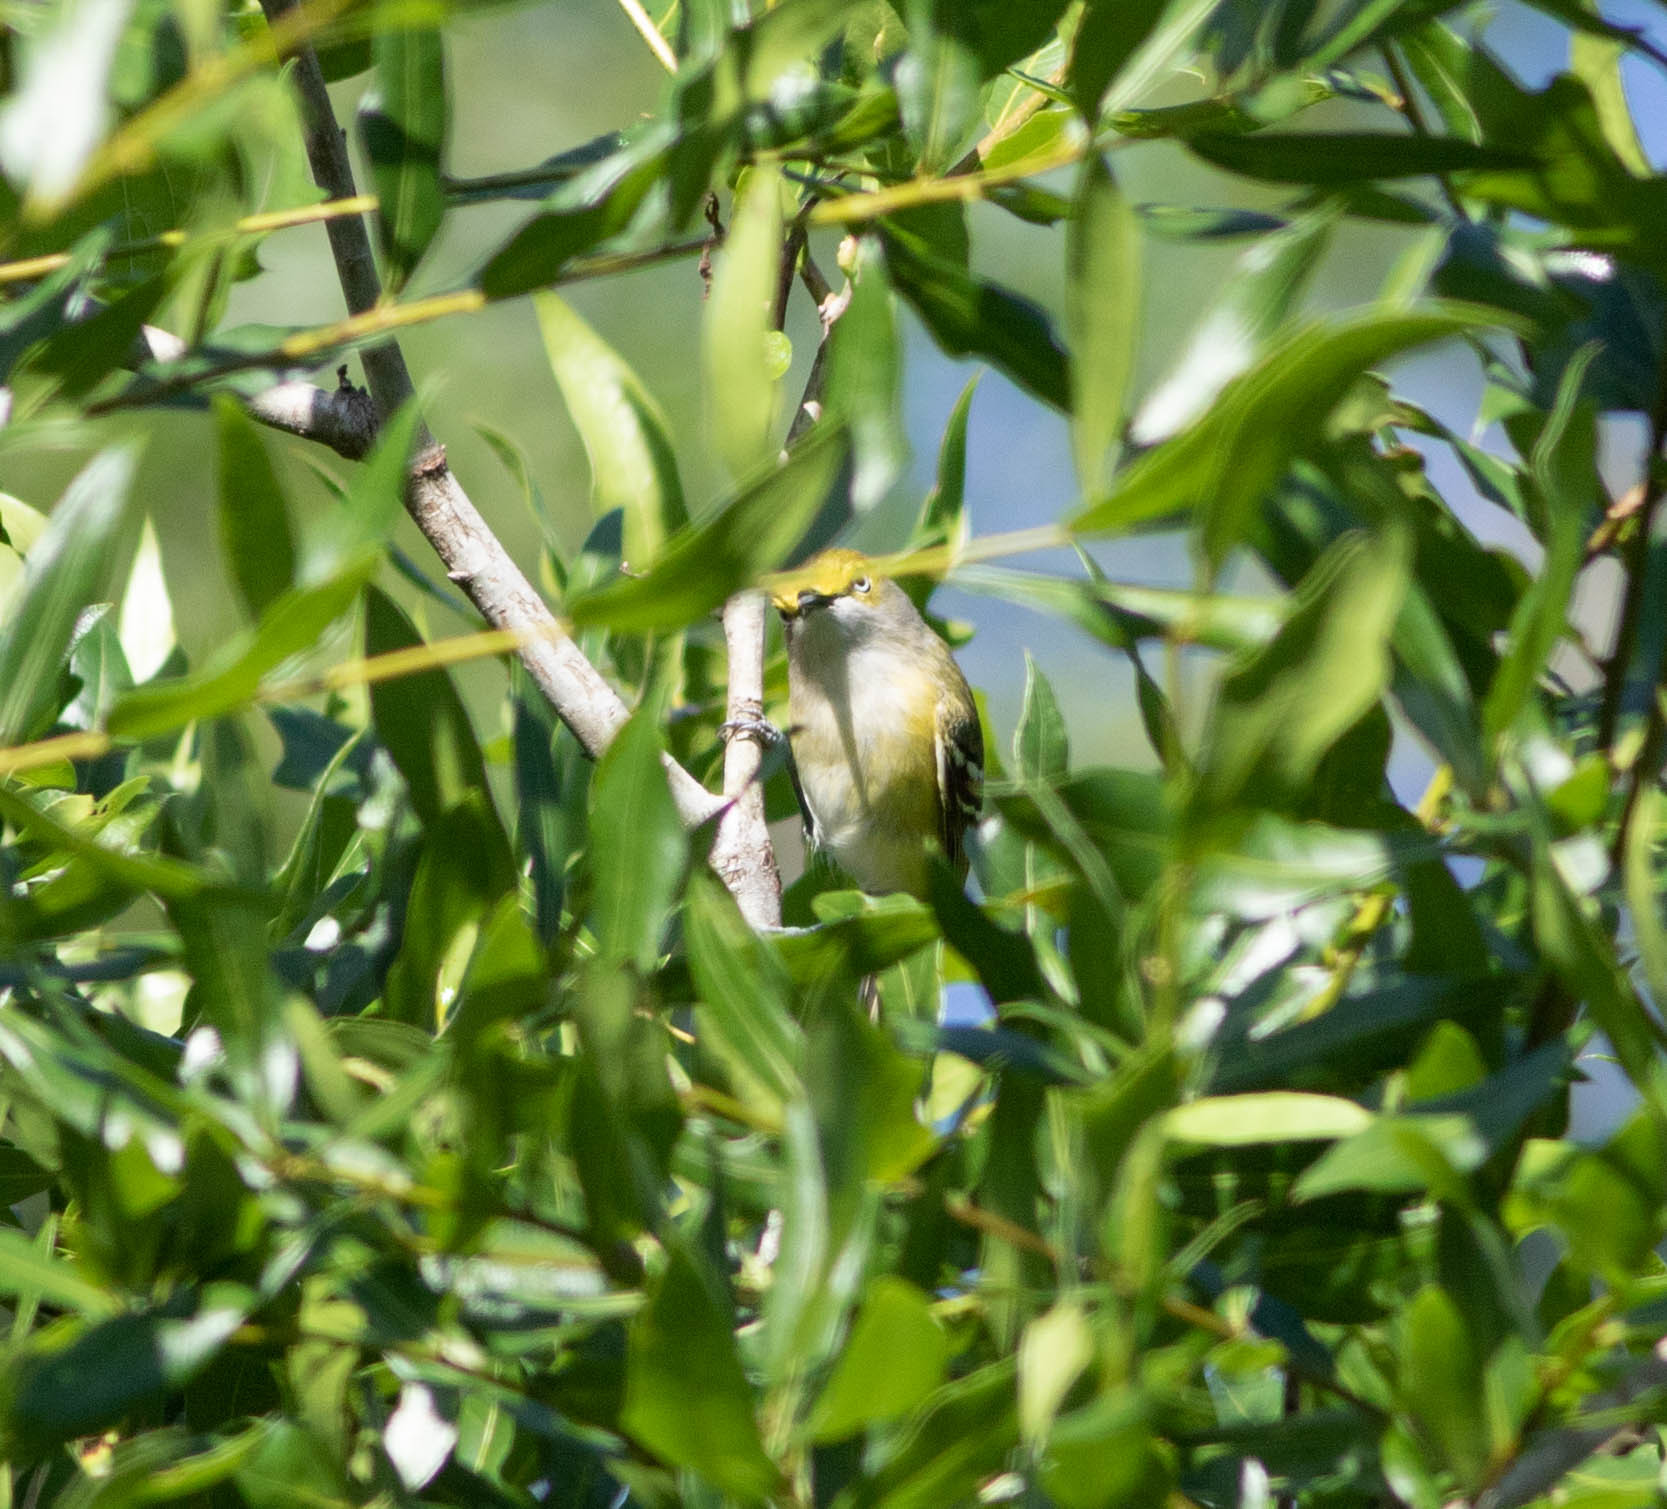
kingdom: Animalia
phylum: Chordata
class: Aves
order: Passeriformes
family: Vireonidae
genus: Vireo
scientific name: Vireo griseus
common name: White-eyed vireo
